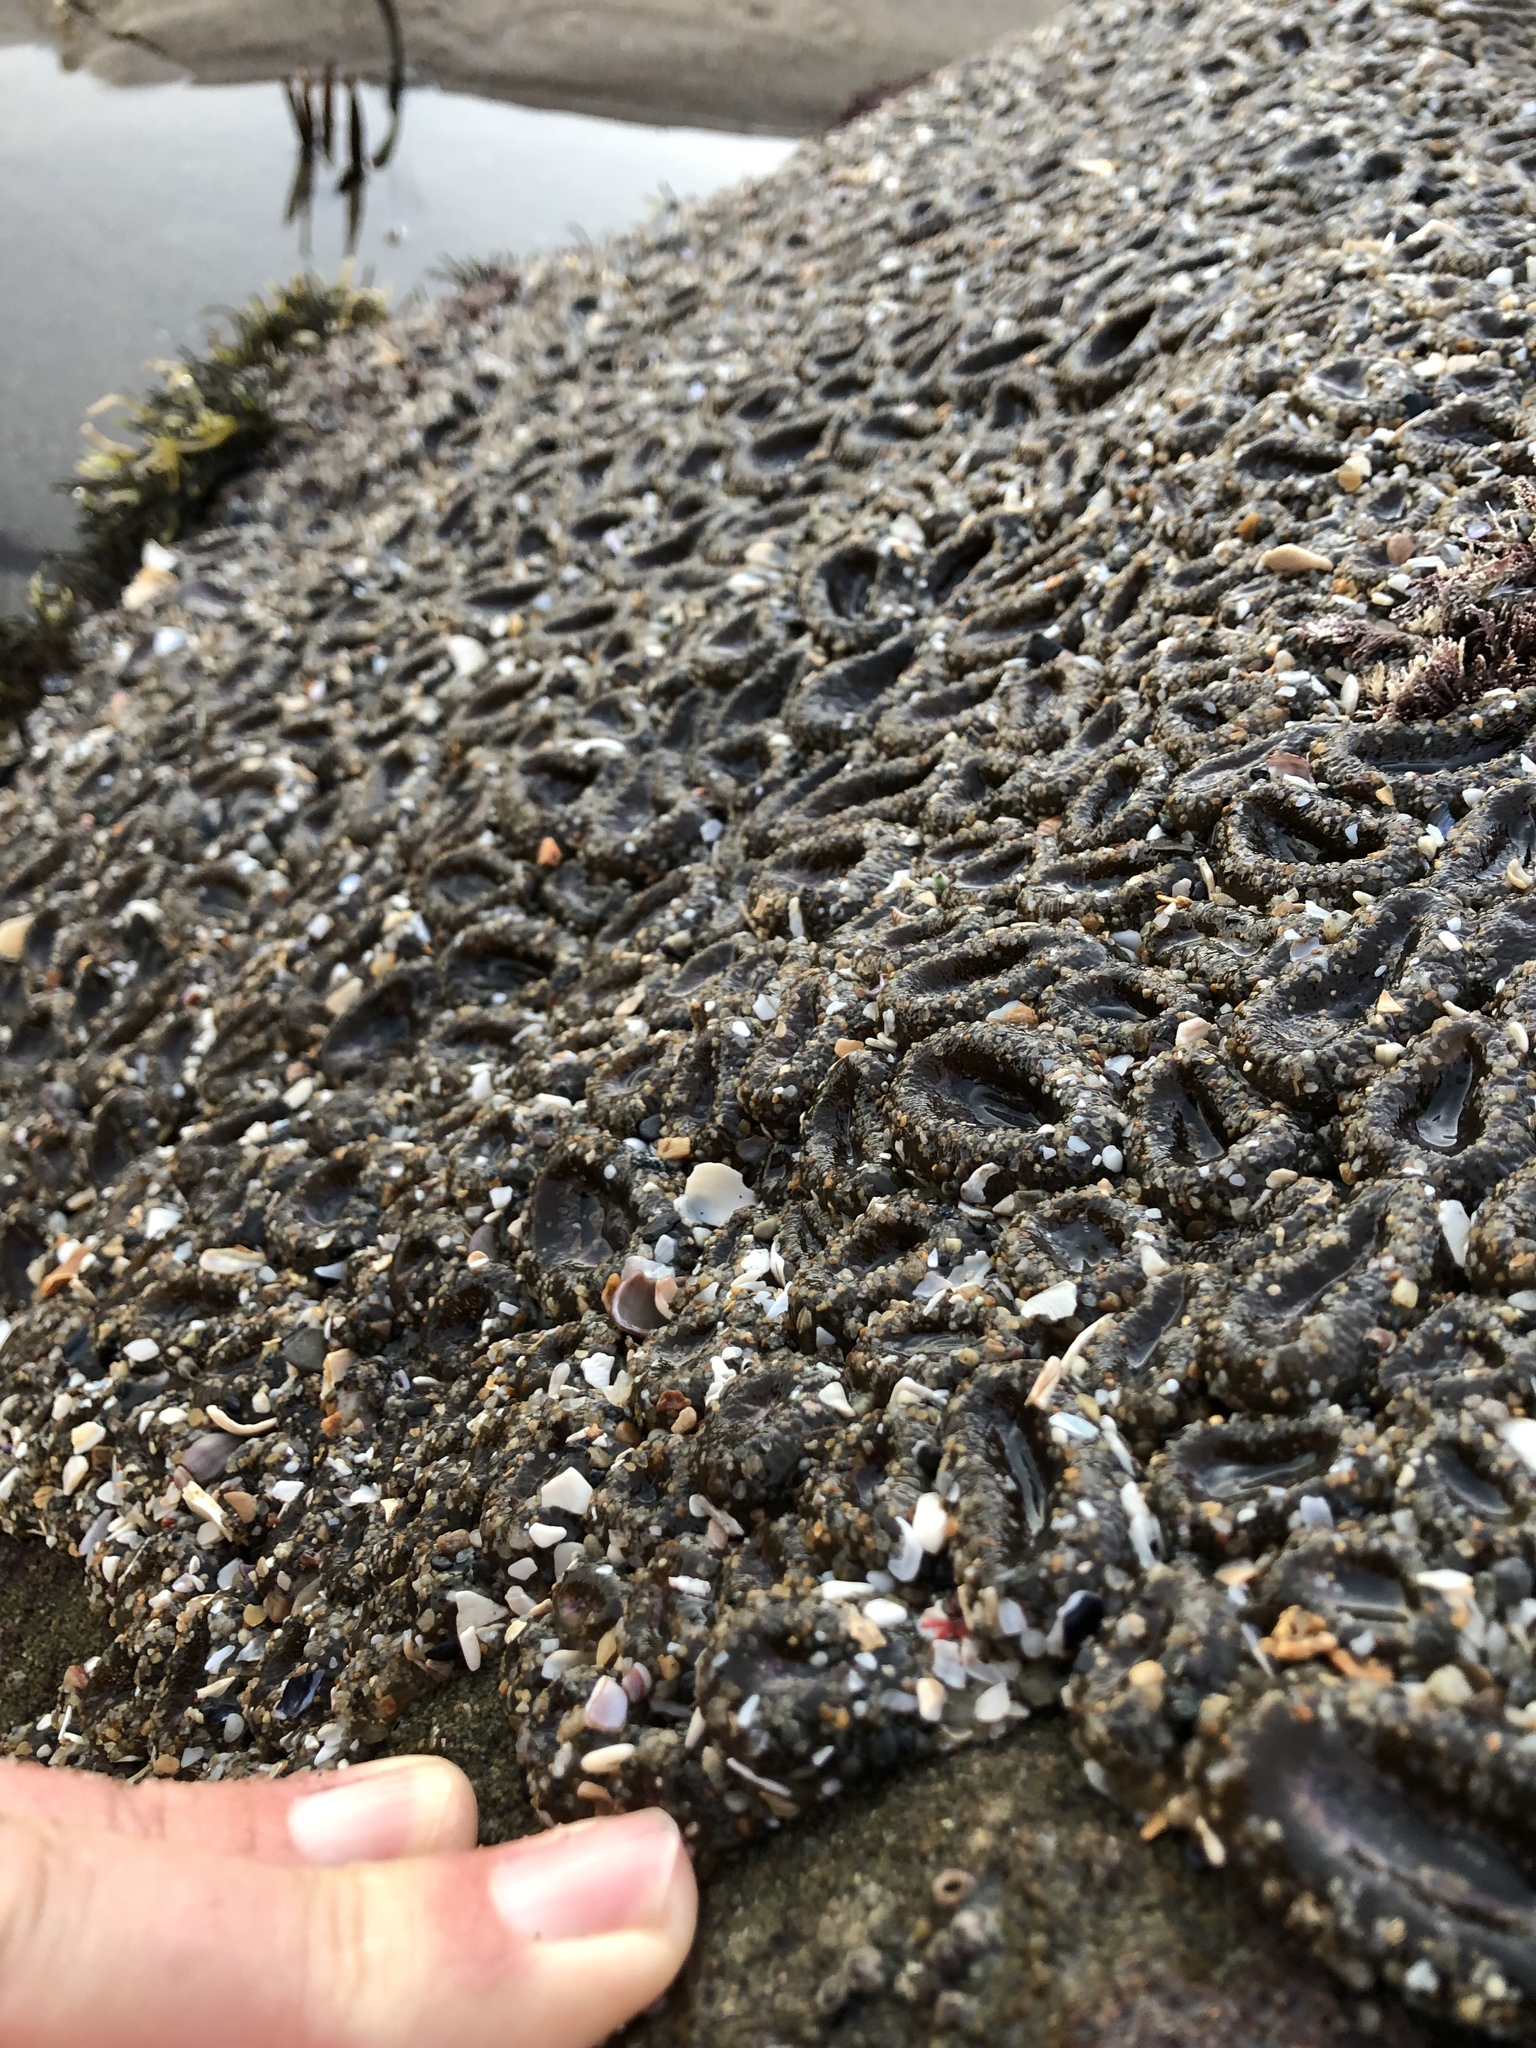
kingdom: Animalia
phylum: Cnidaria
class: Anthozoa
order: Actiniaria
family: Actiniidae
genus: Anthopleura
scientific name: Anthopleura elegantissima
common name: Clonal anemone
